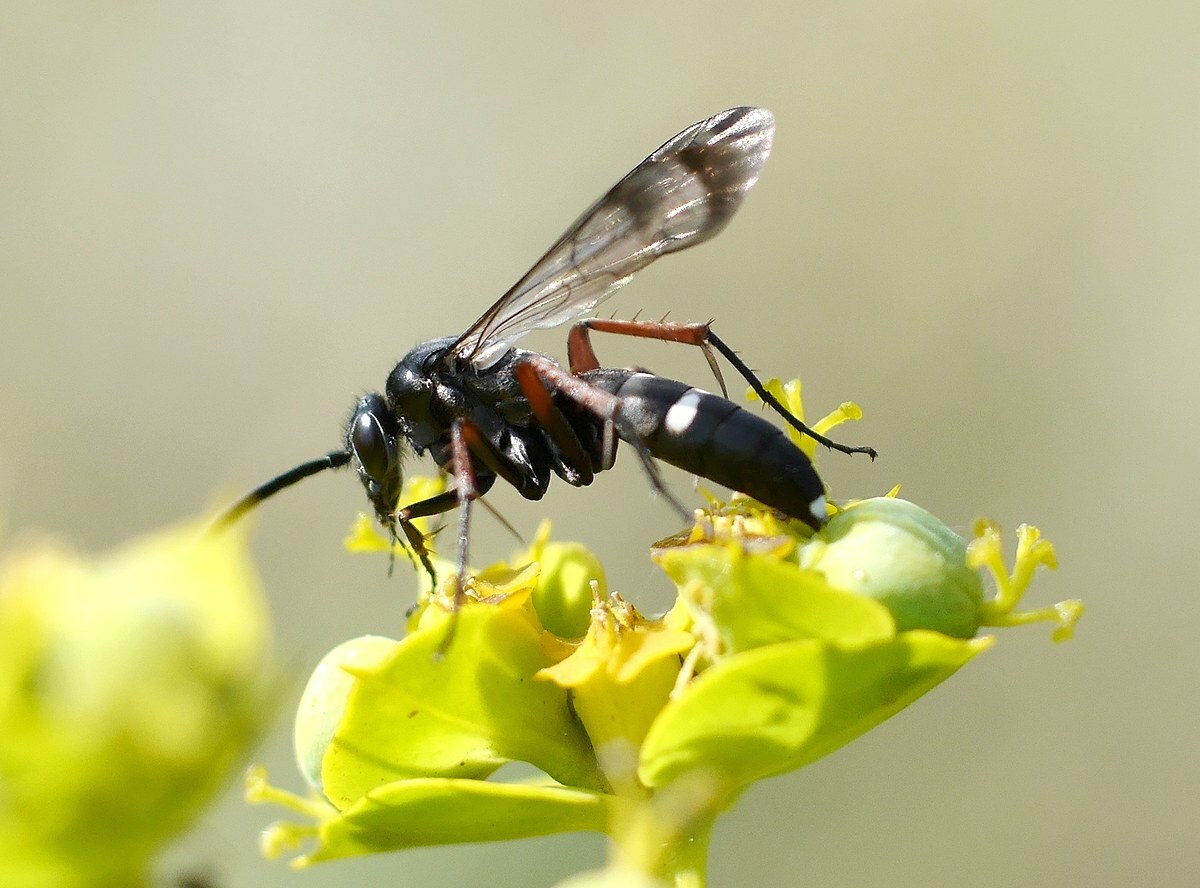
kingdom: Animalia
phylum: Arthropoda
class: Insecta
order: Hymenoptera
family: Pompilidae
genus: Episyron
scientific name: Episyron rufipes
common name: Red legged spider wasp
